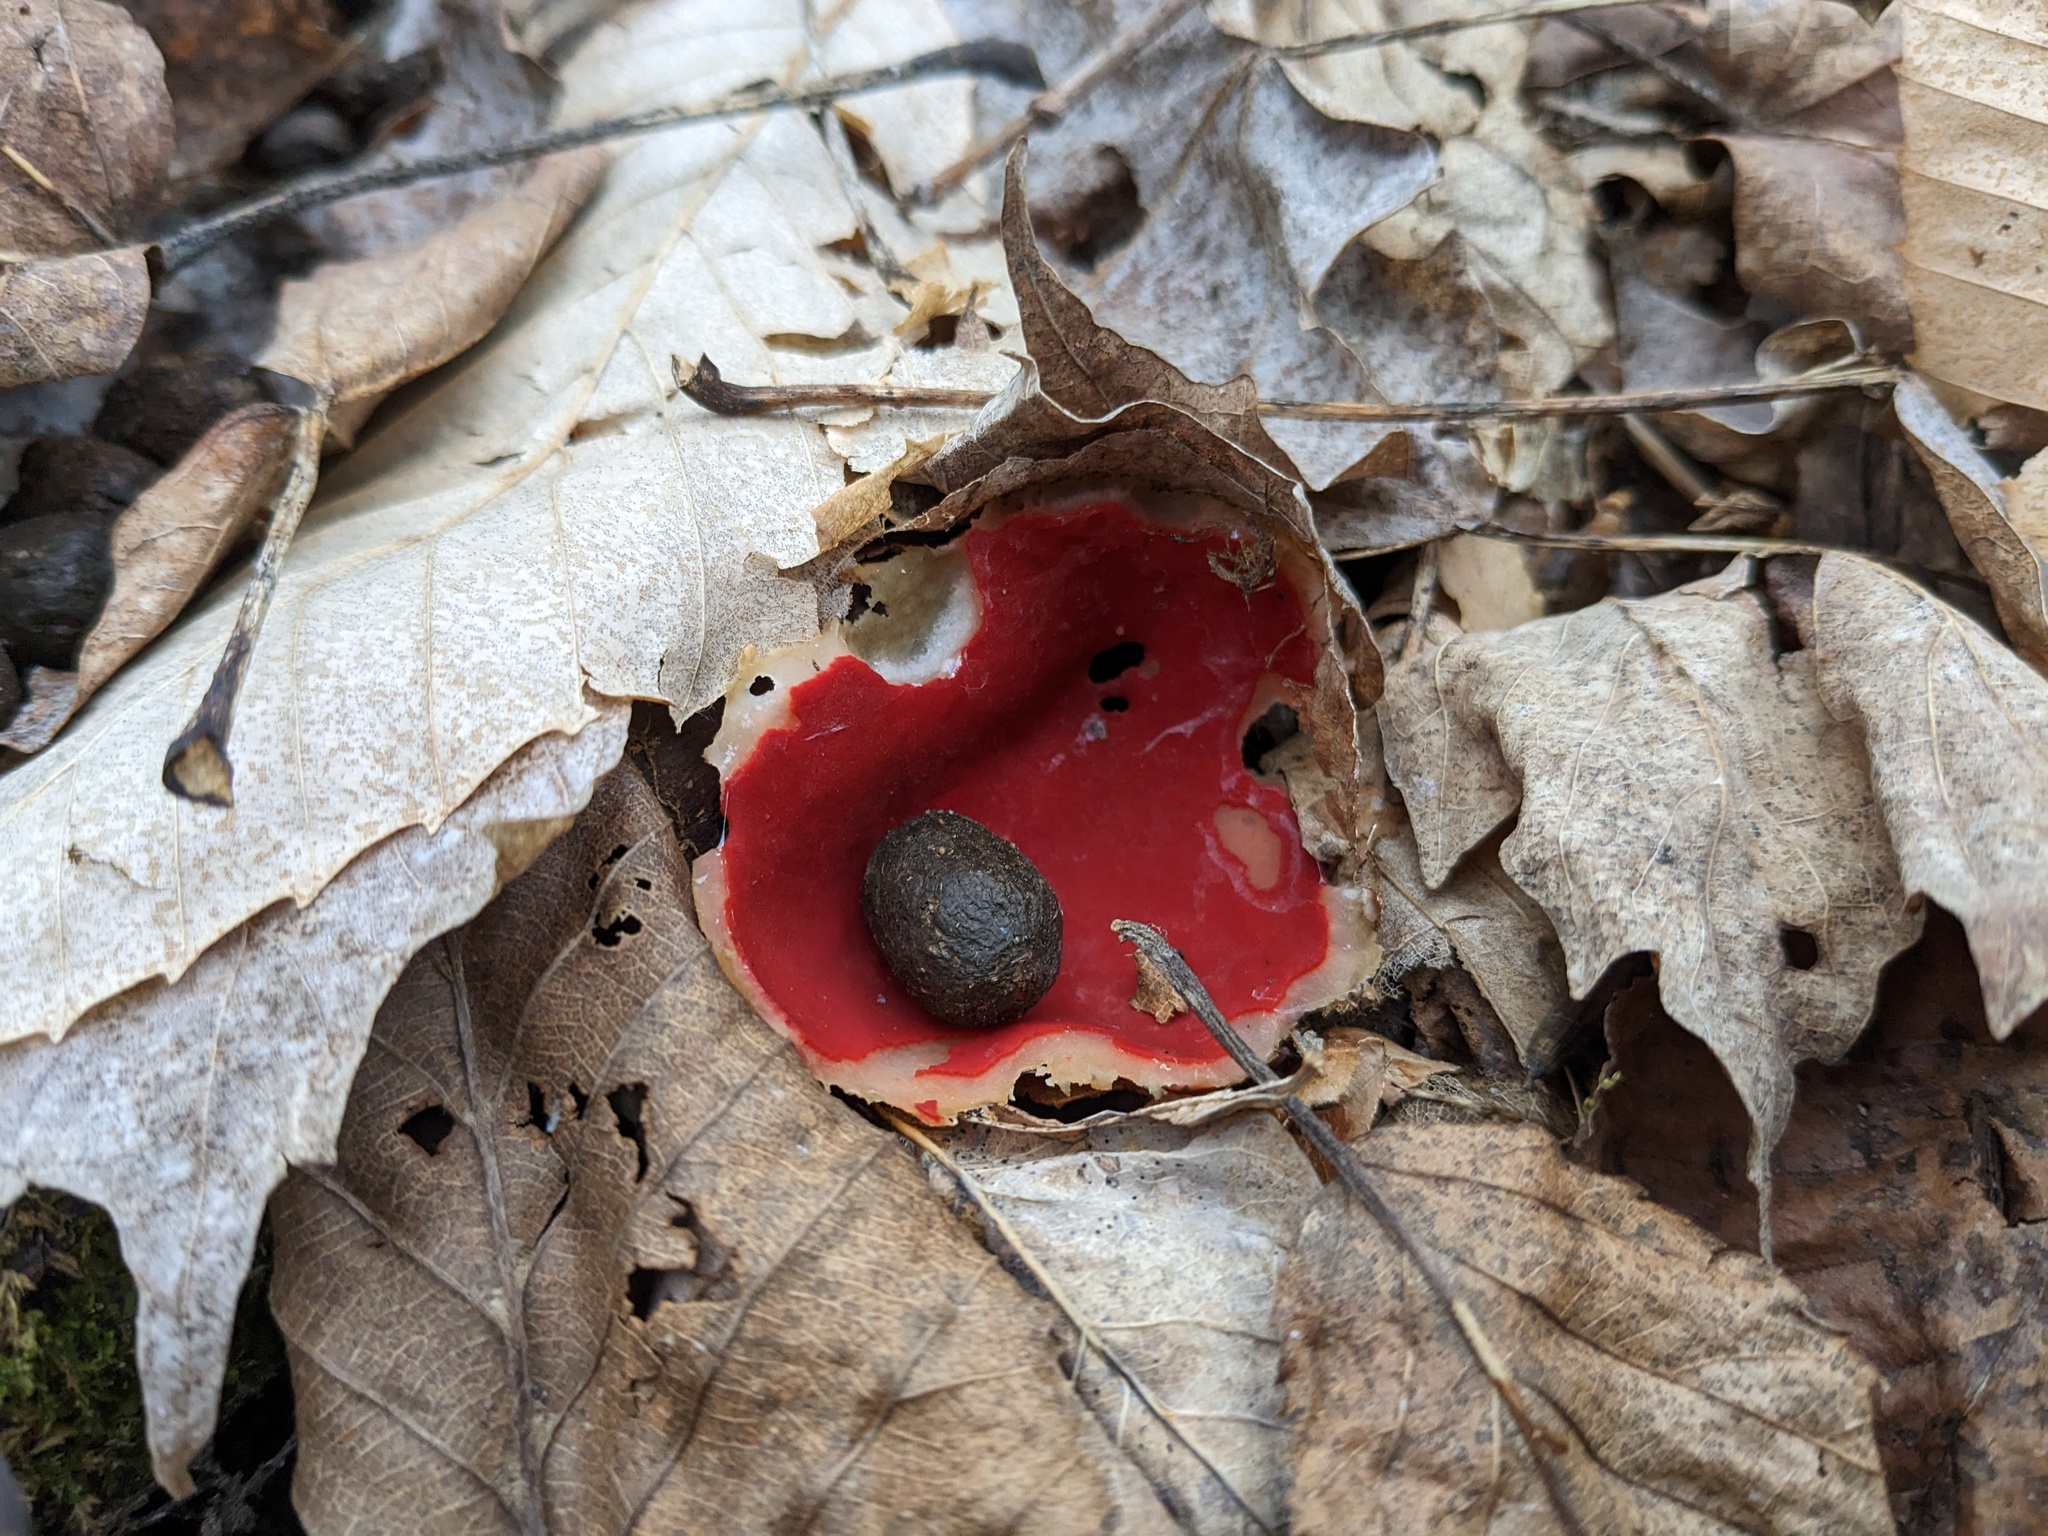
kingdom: Fungi
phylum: Ascomycota
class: Pezizomycetes
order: Pezizales
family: Sarcoscyphaceae
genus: Sarcoscypha
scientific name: Sarcoscypha austriaca
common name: Scarlet elfcup
